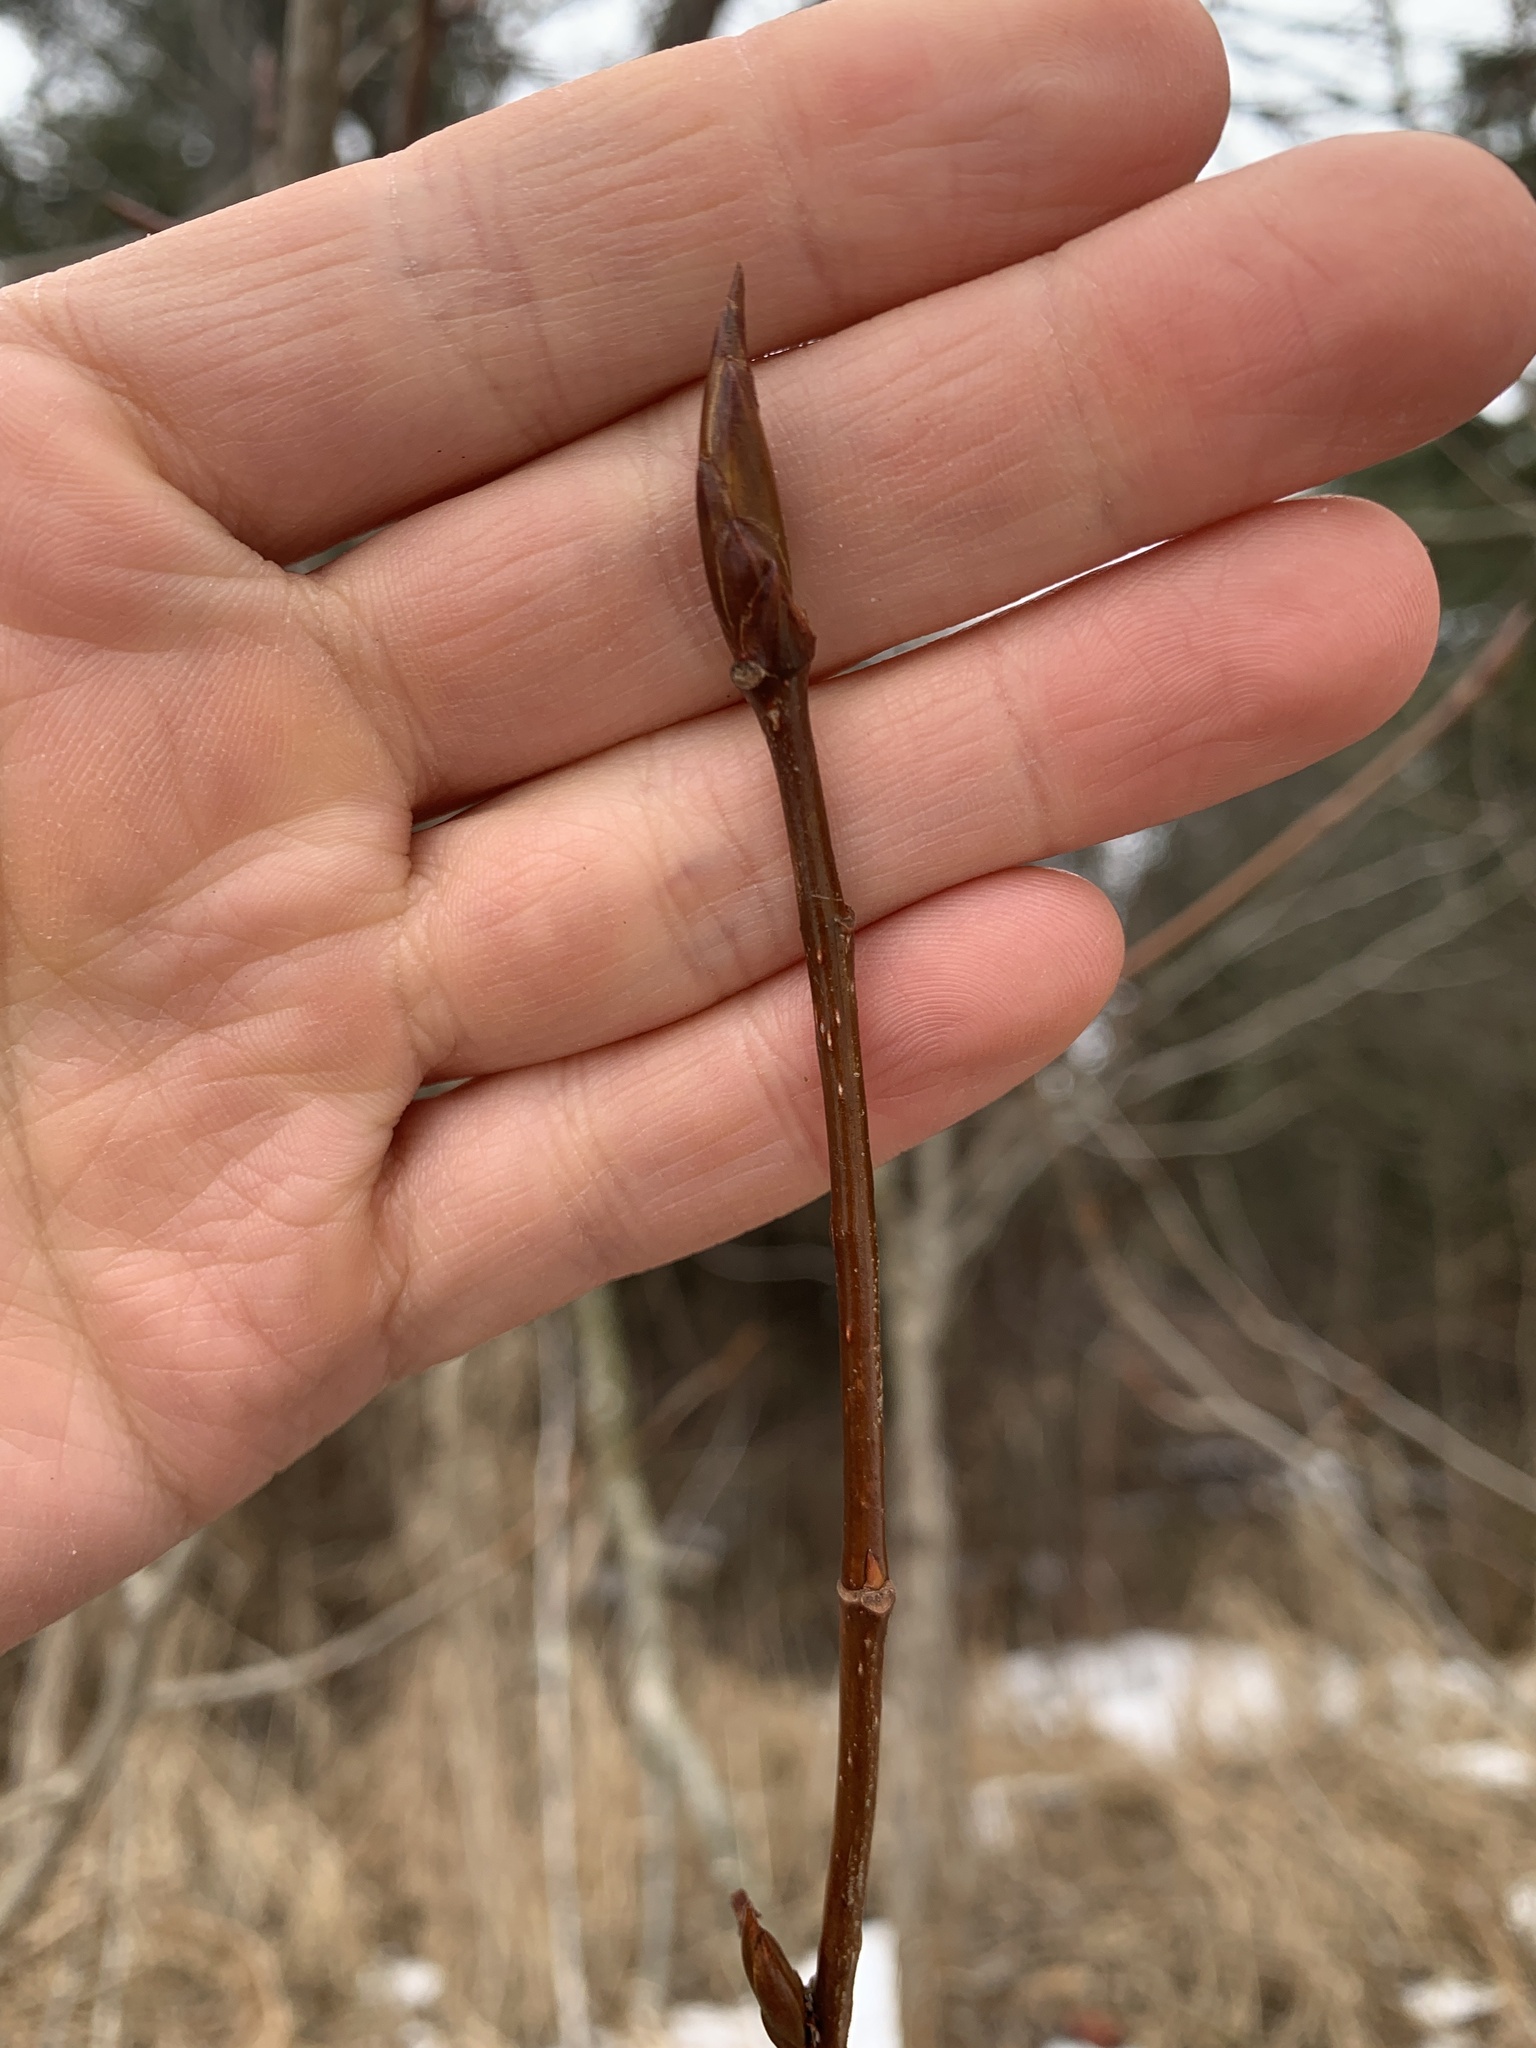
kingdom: Plantae
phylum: Tracheophyta
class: Magnoliopsida
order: Malpighiales
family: Salicaceae
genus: Populus
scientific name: Populus balsamifera
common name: Balsam poplar
